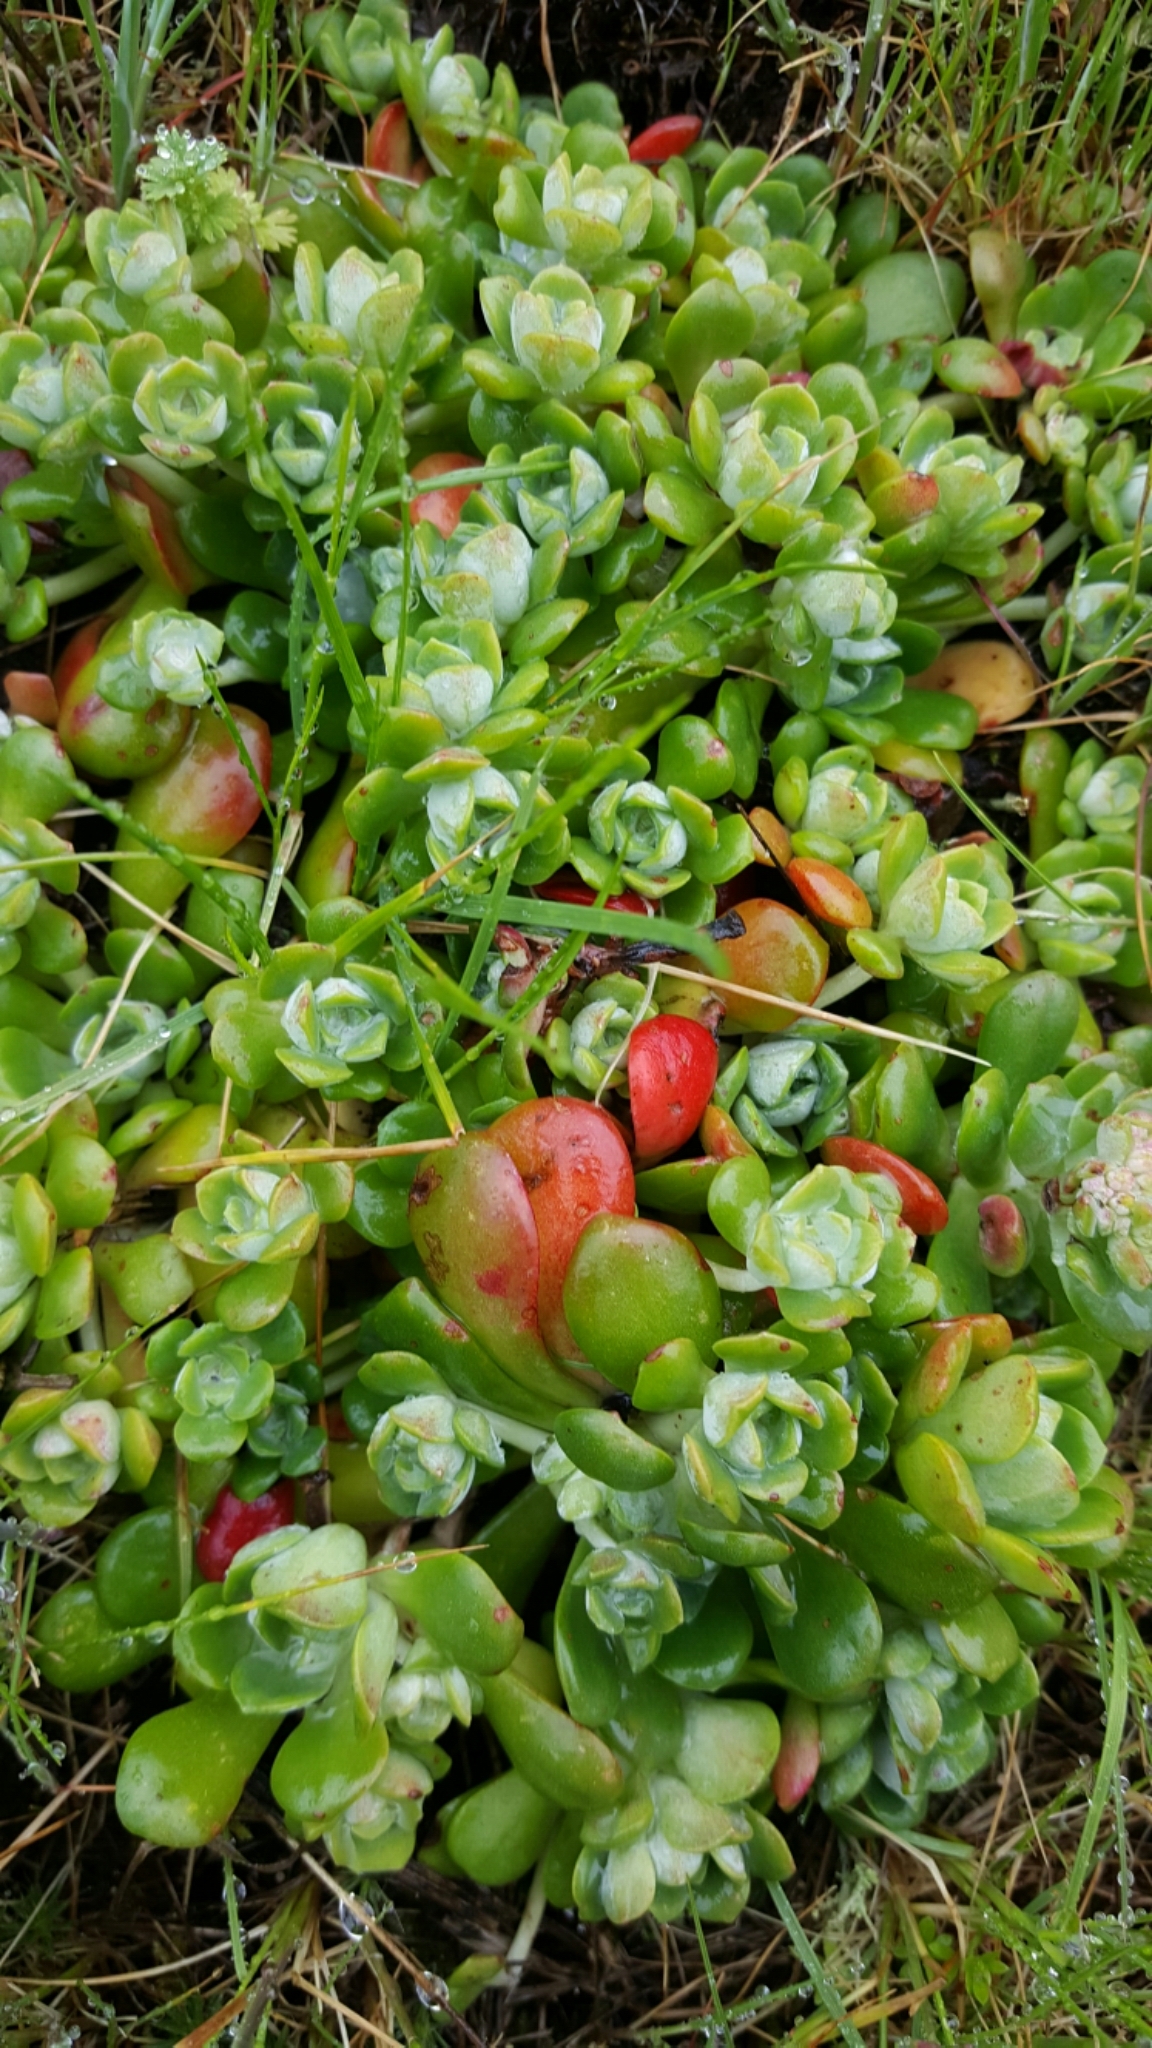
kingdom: Plantae
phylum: Tracheophyta
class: Magnoliopsida
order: Saxifragales
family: Crassulaceae
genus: Sedum
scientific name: Sedum spathulifolium
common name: Colorado stonecrop
